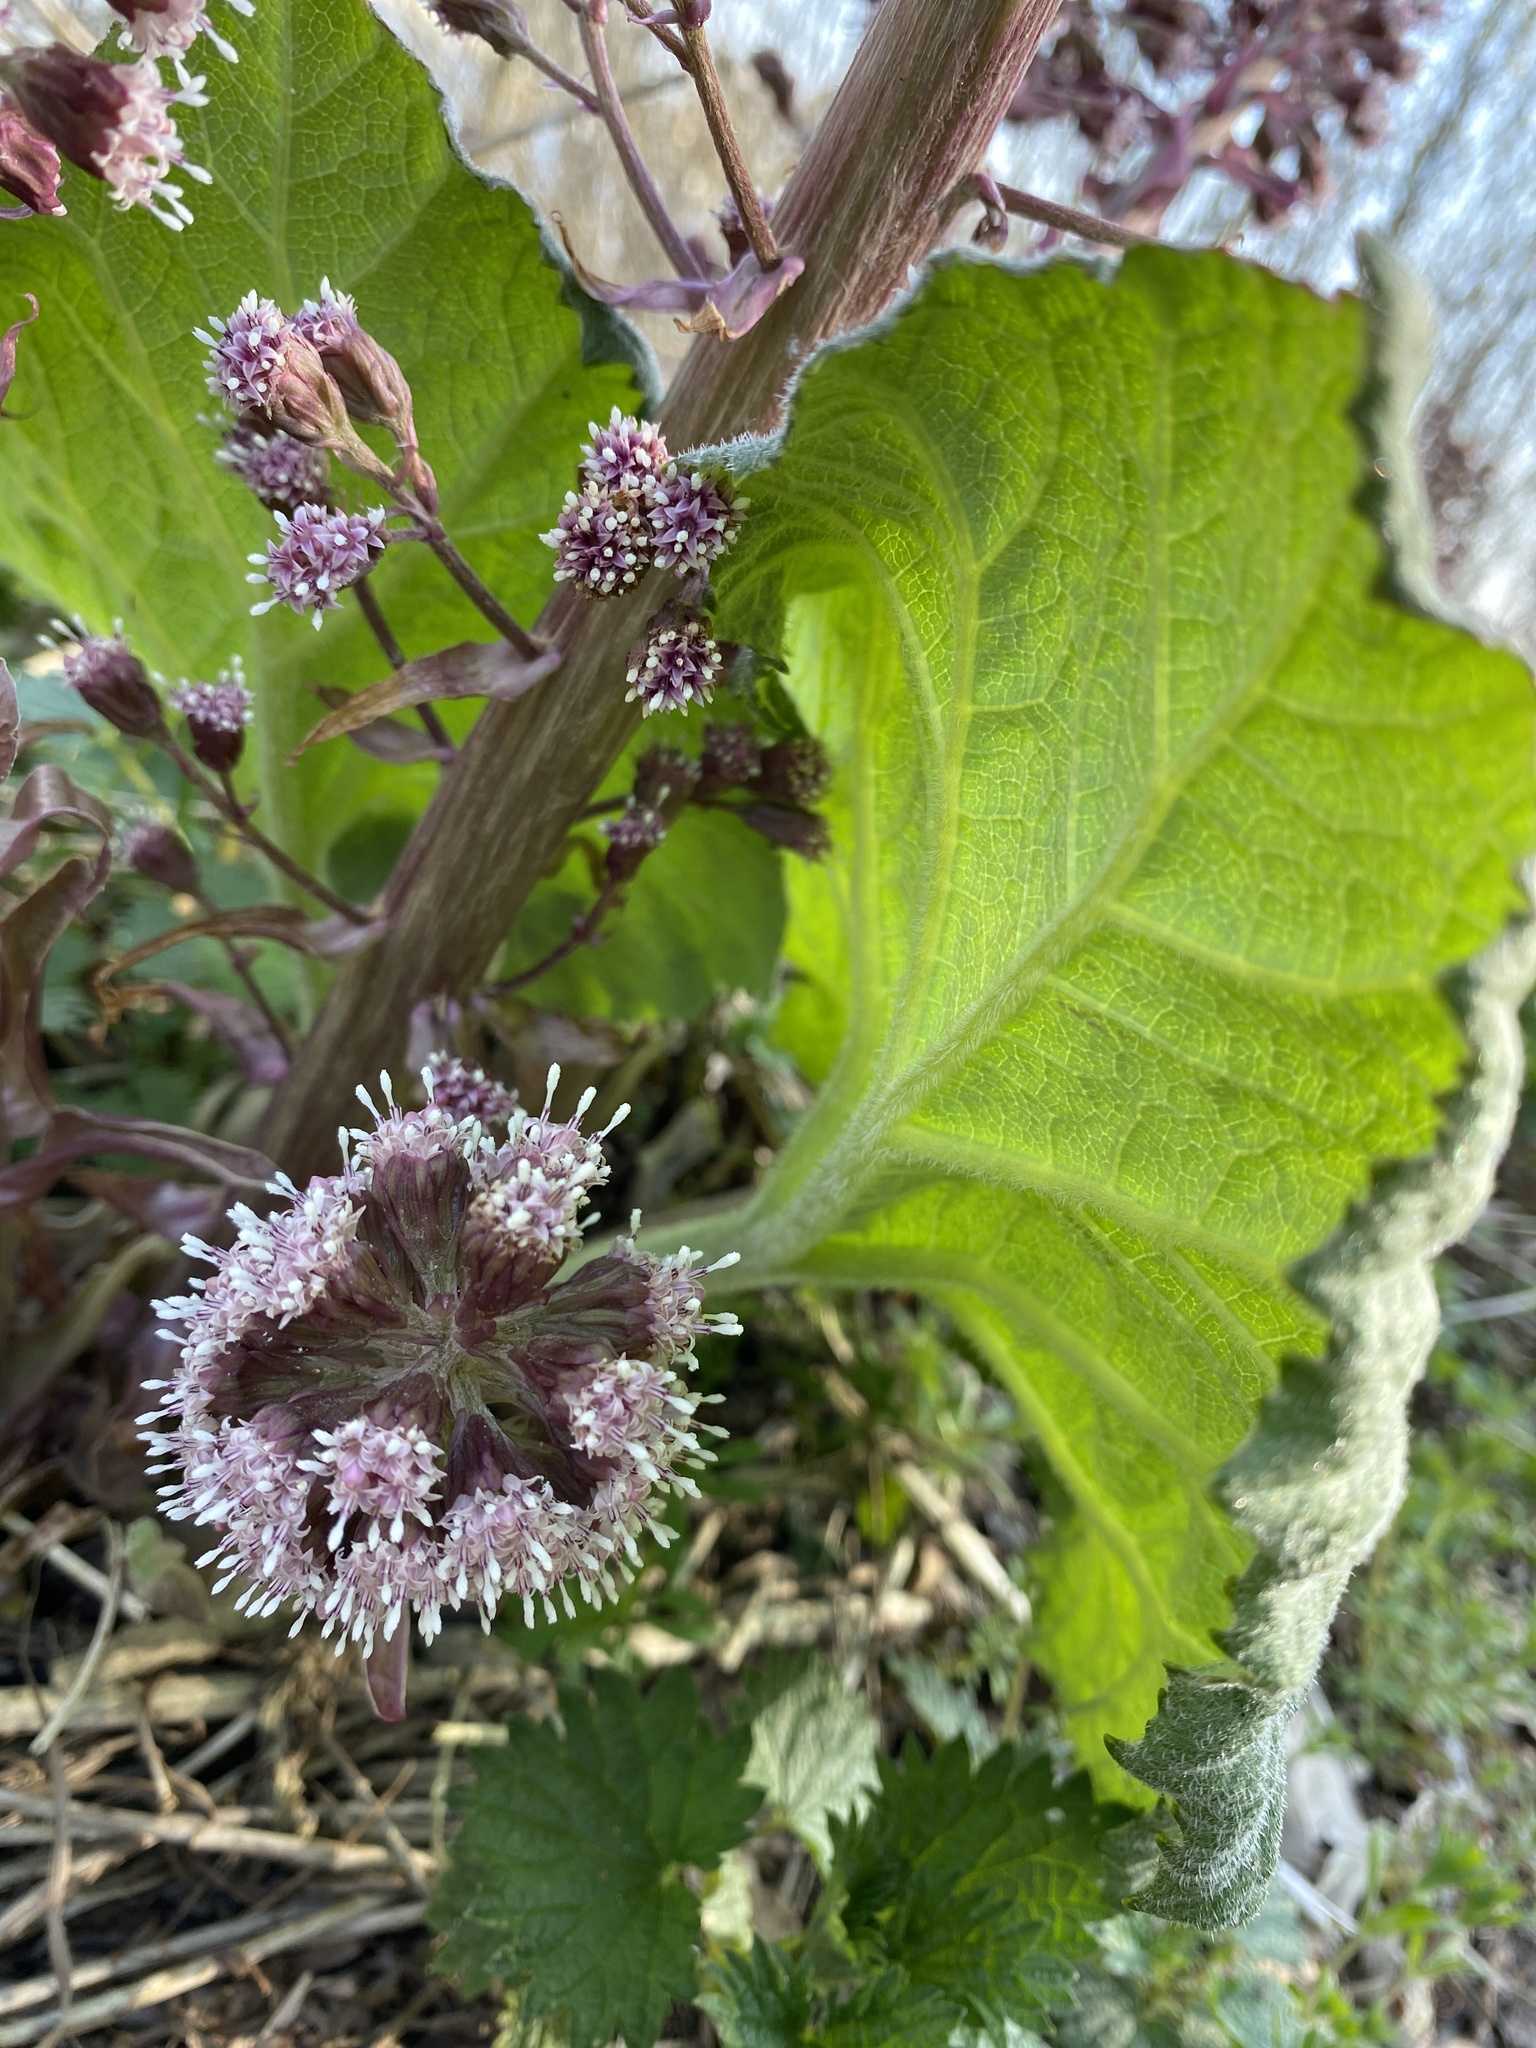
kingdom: Plantae
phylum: Tracheophyta
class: Magnoliopsida
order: Asterales
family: Asteraceae
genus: Petasites
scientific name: Petasites hybridus
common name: Butterbur
